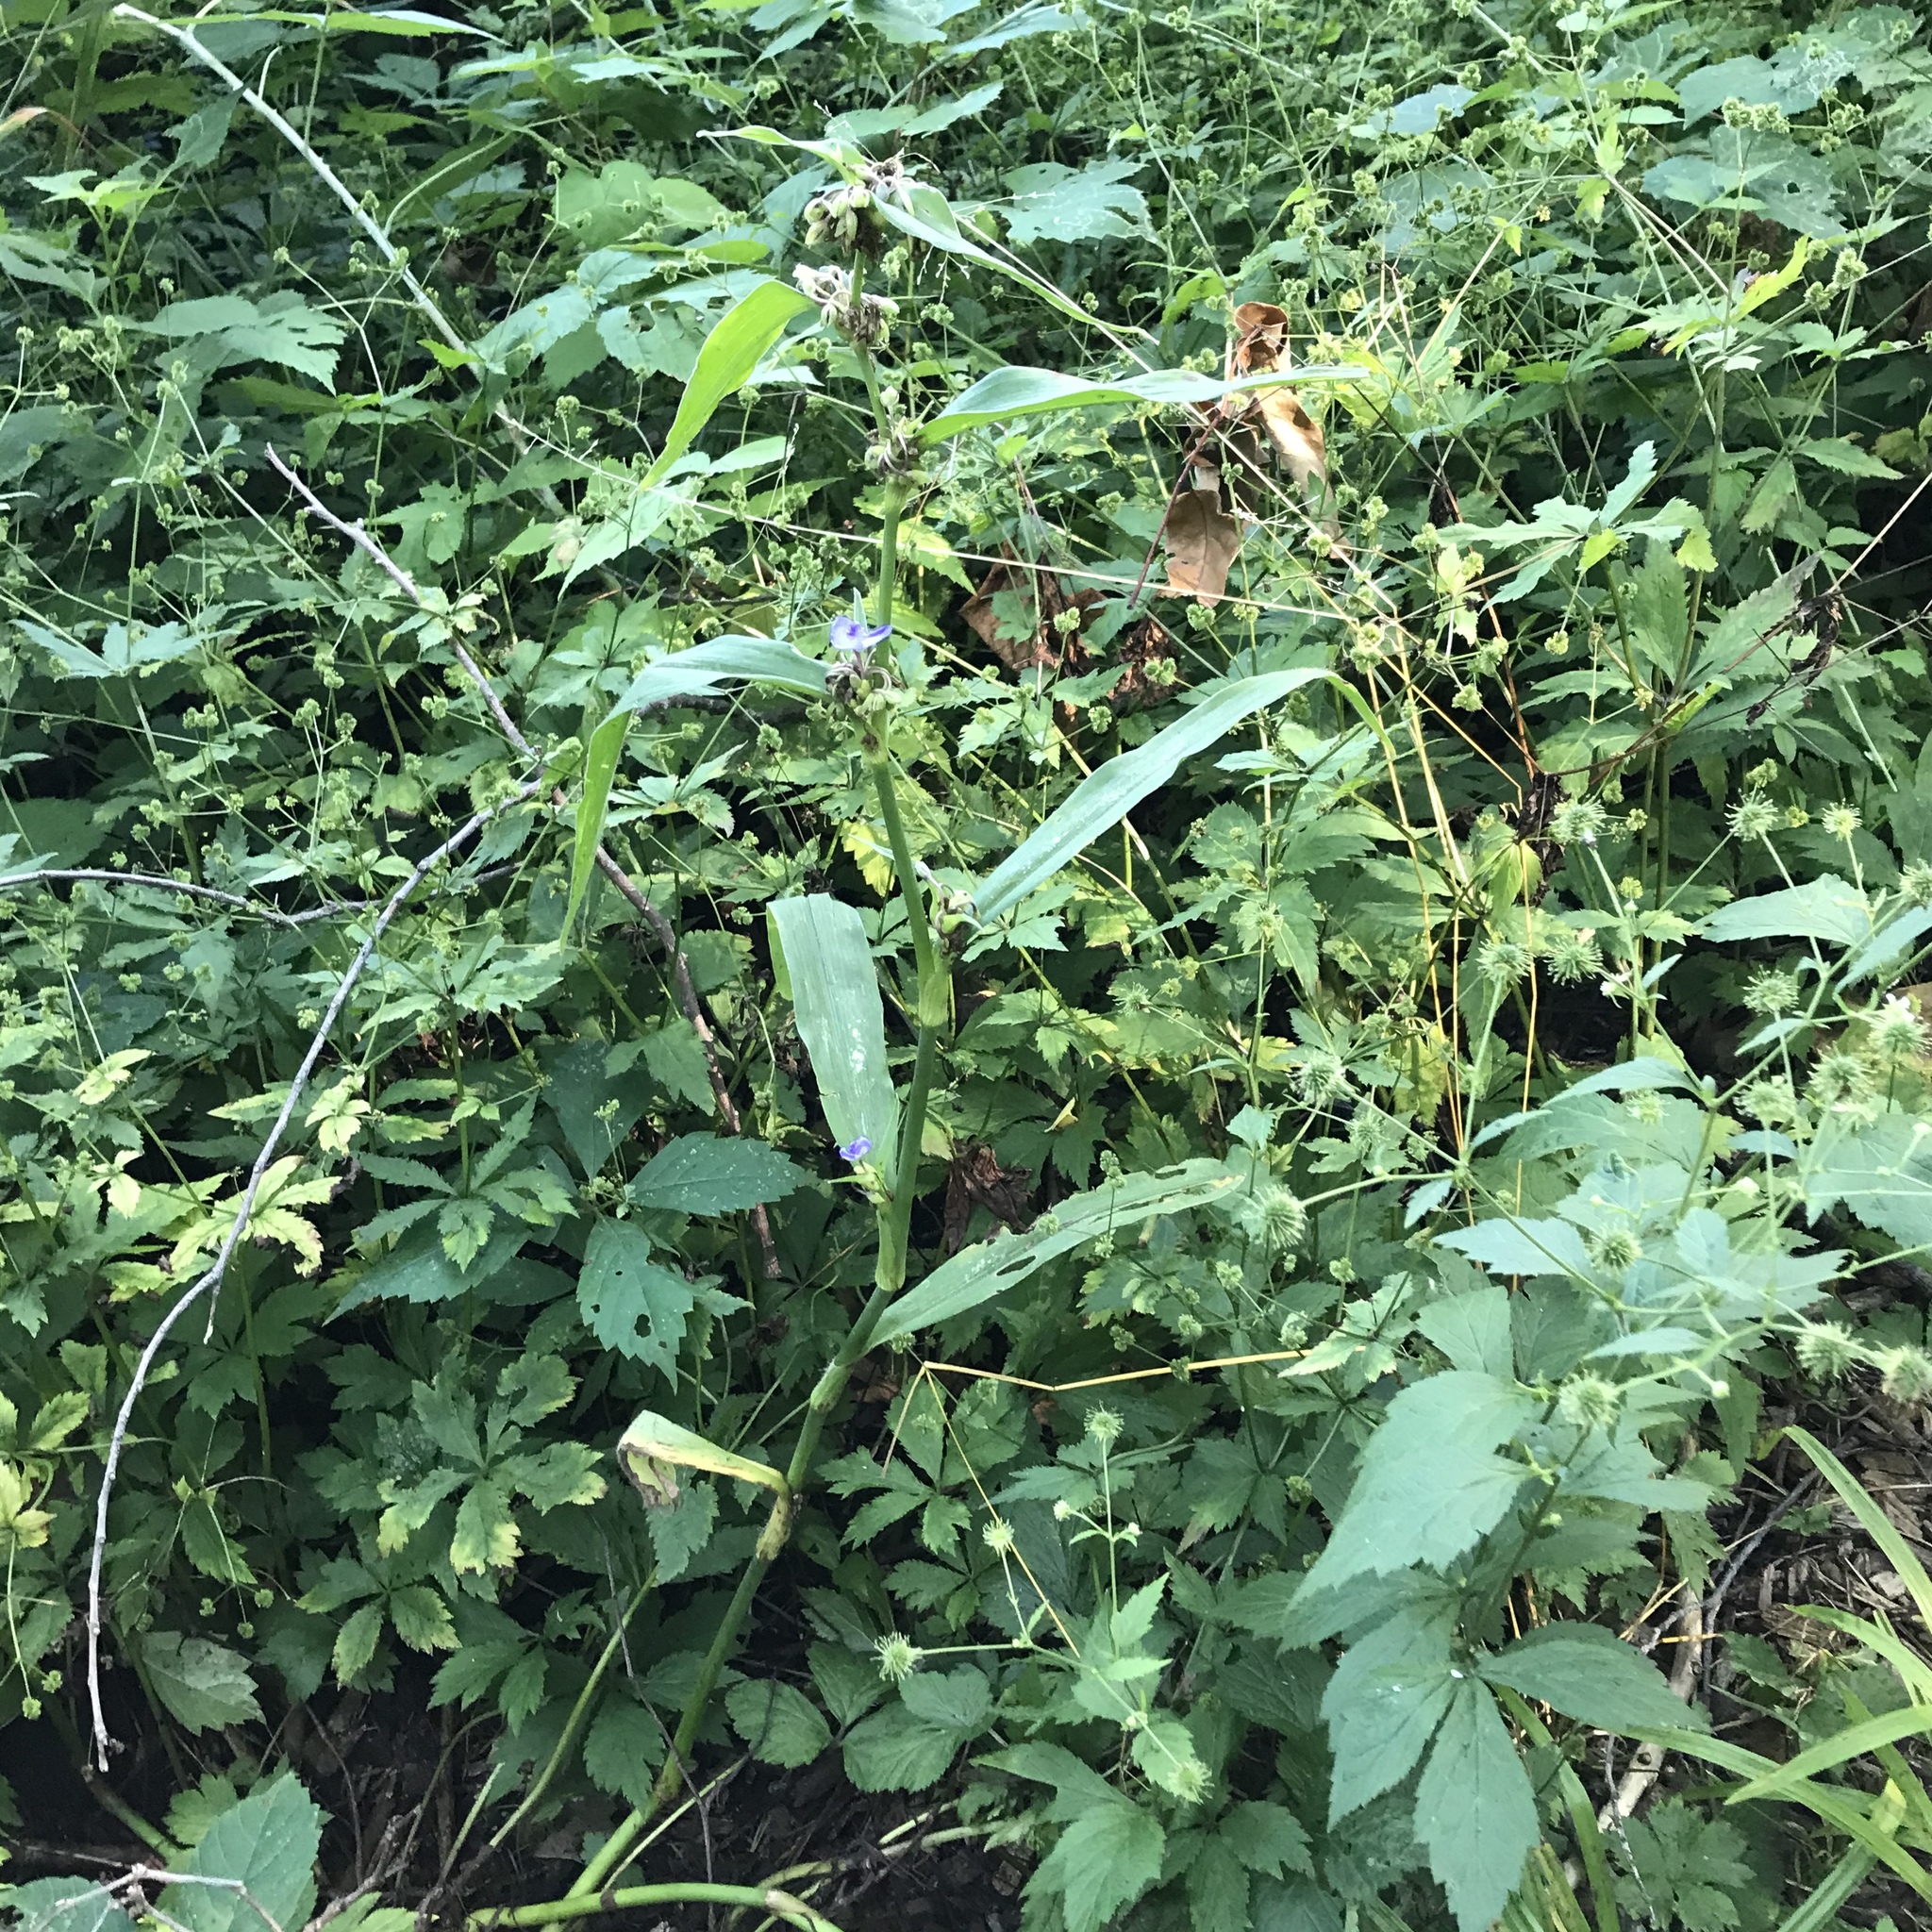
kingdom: Plantae
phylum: Tracheophyta
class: Liliopsida
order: Commelinales
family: Commelinaceae
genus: Tradescantia
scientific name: Tradescantia subaspera
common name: Wide-leaf spiderwort
